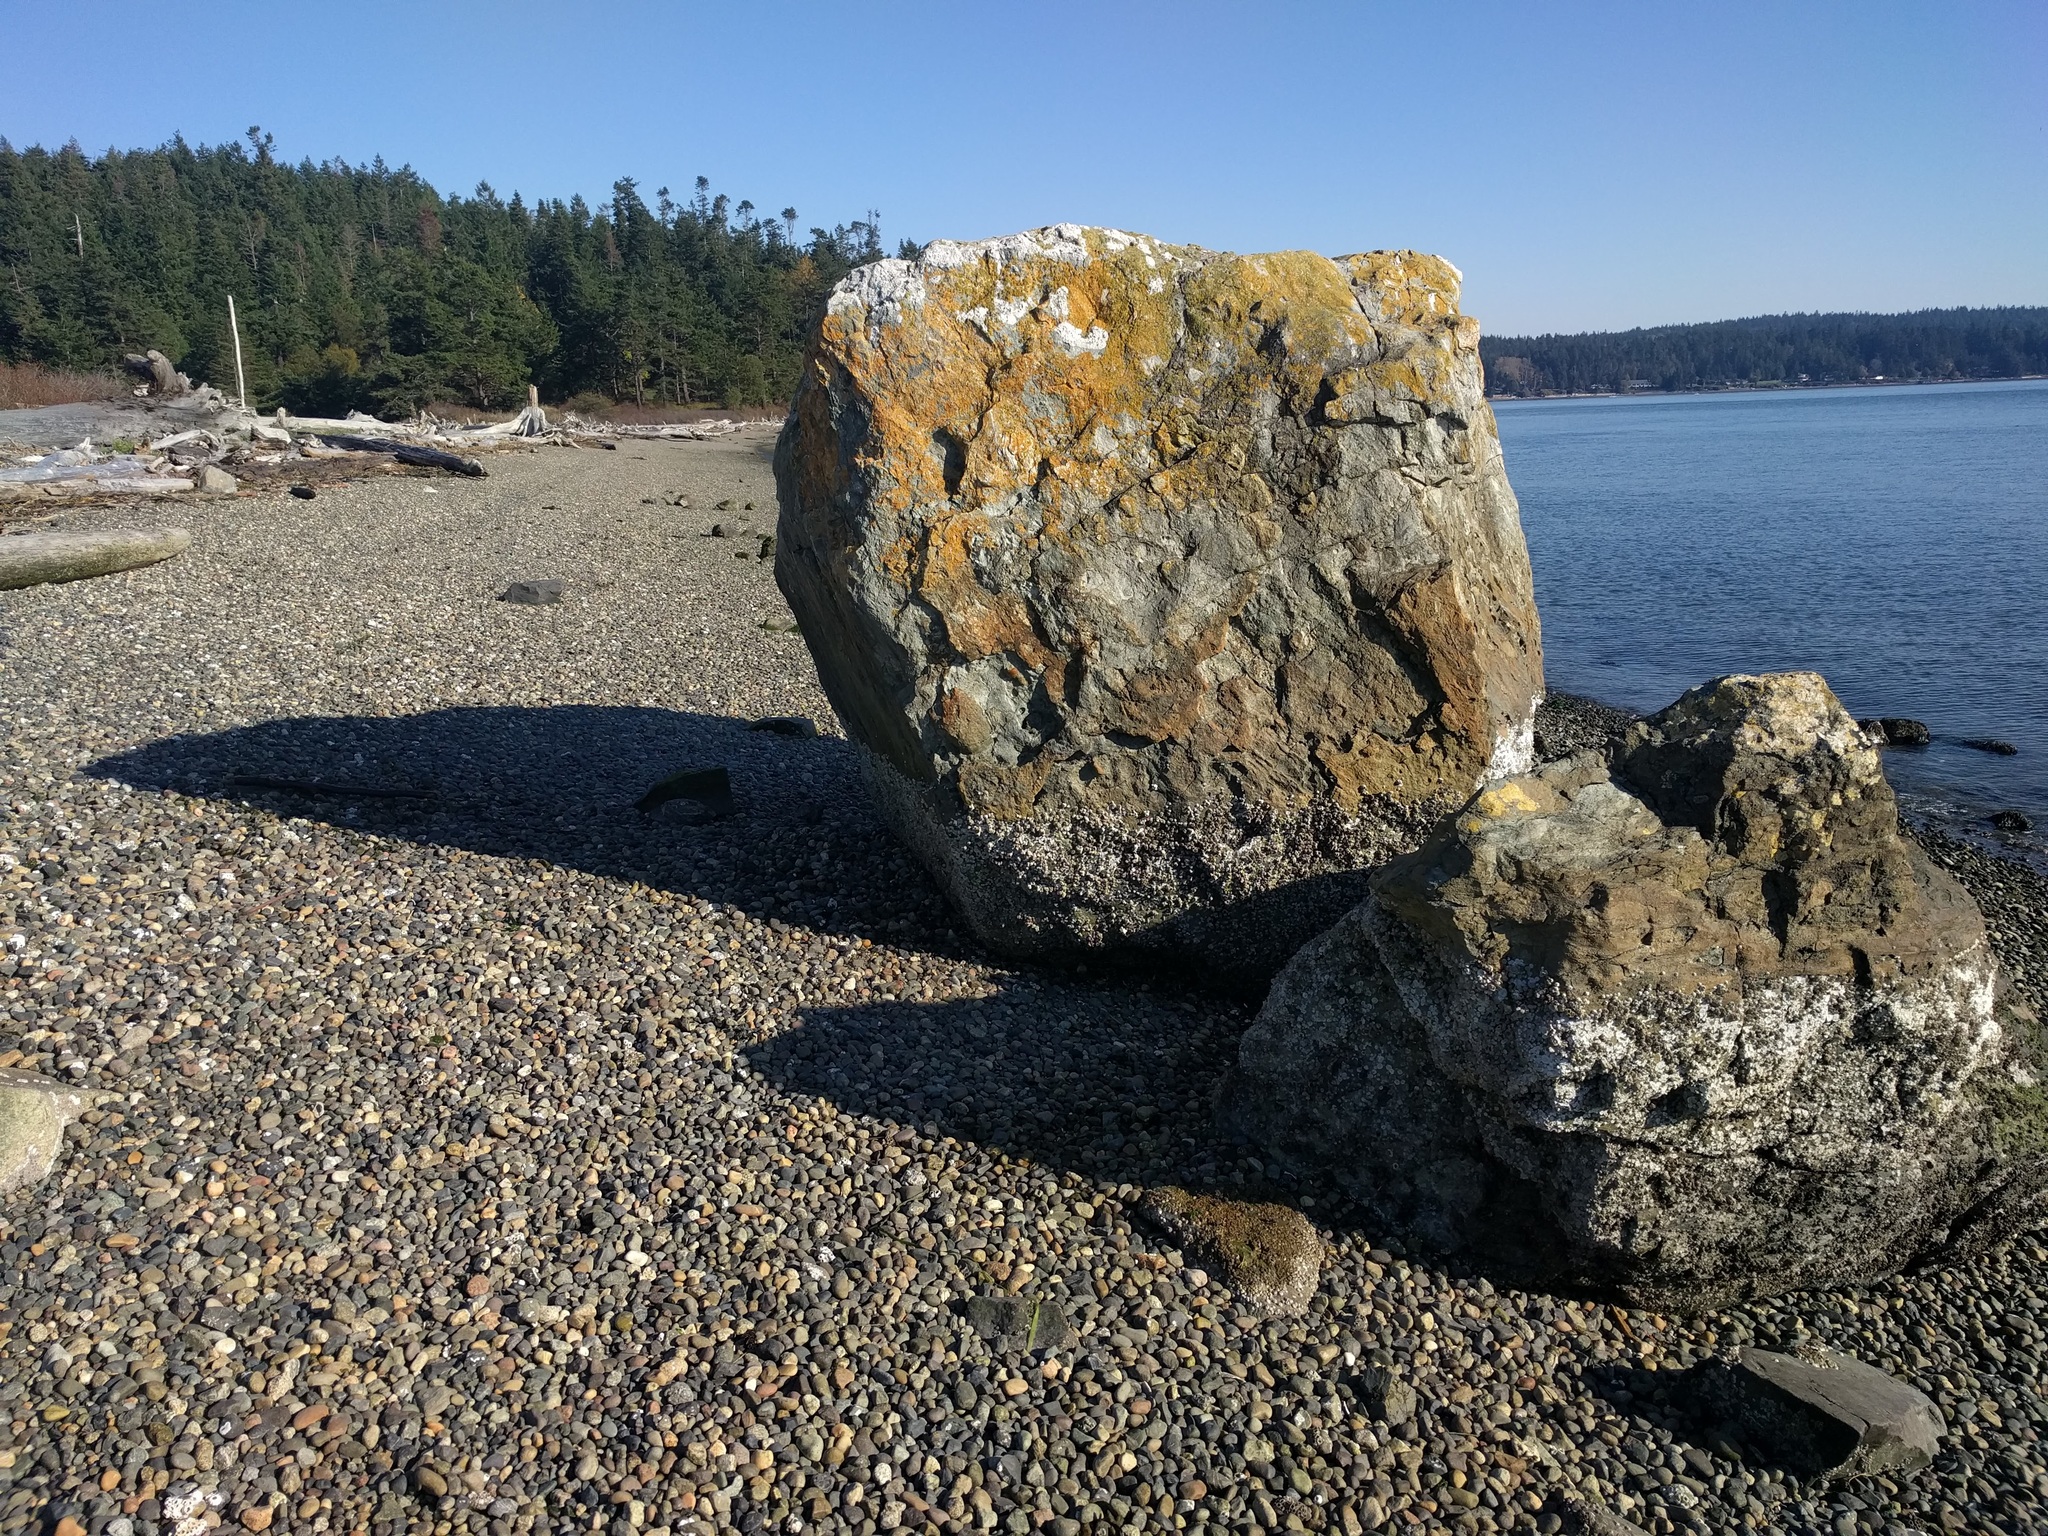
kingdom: Animalia
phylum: Arthropoda
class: Maxillopoda
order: Sessilia
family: Balanidae
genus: Balanus
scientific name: Balanus glandula
